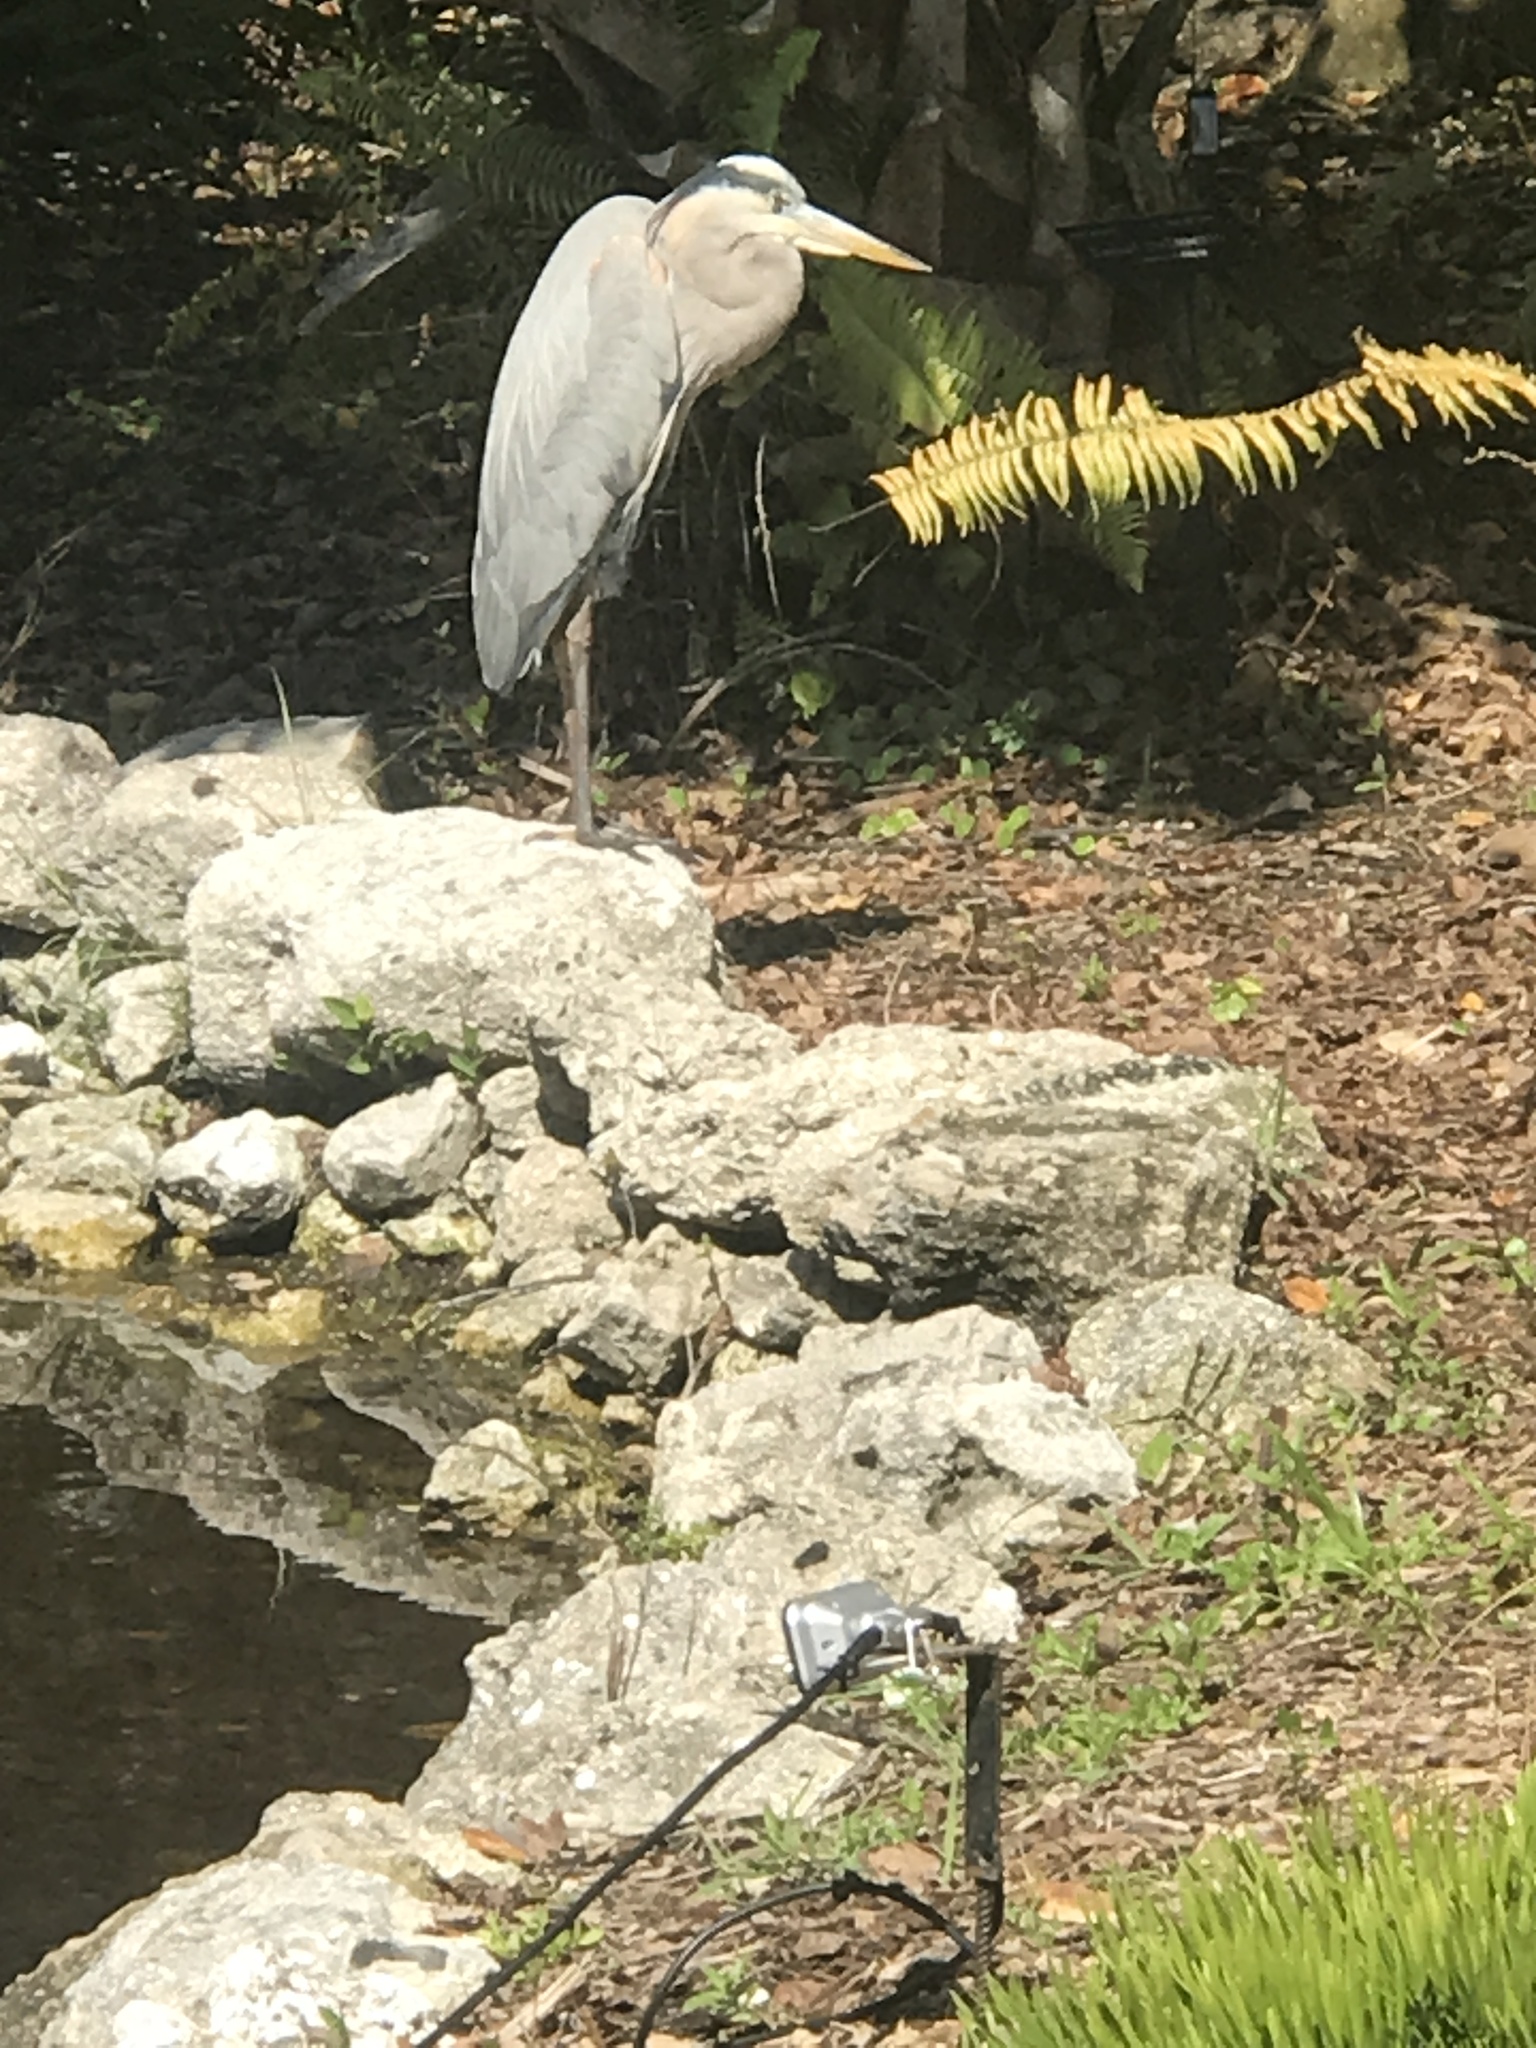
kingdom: Animalia
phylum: Chordata
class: Aves
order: Pelecaniformes
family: Ardeidae
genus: Ardea
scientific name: Ardea herodias
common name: Great blue heron
